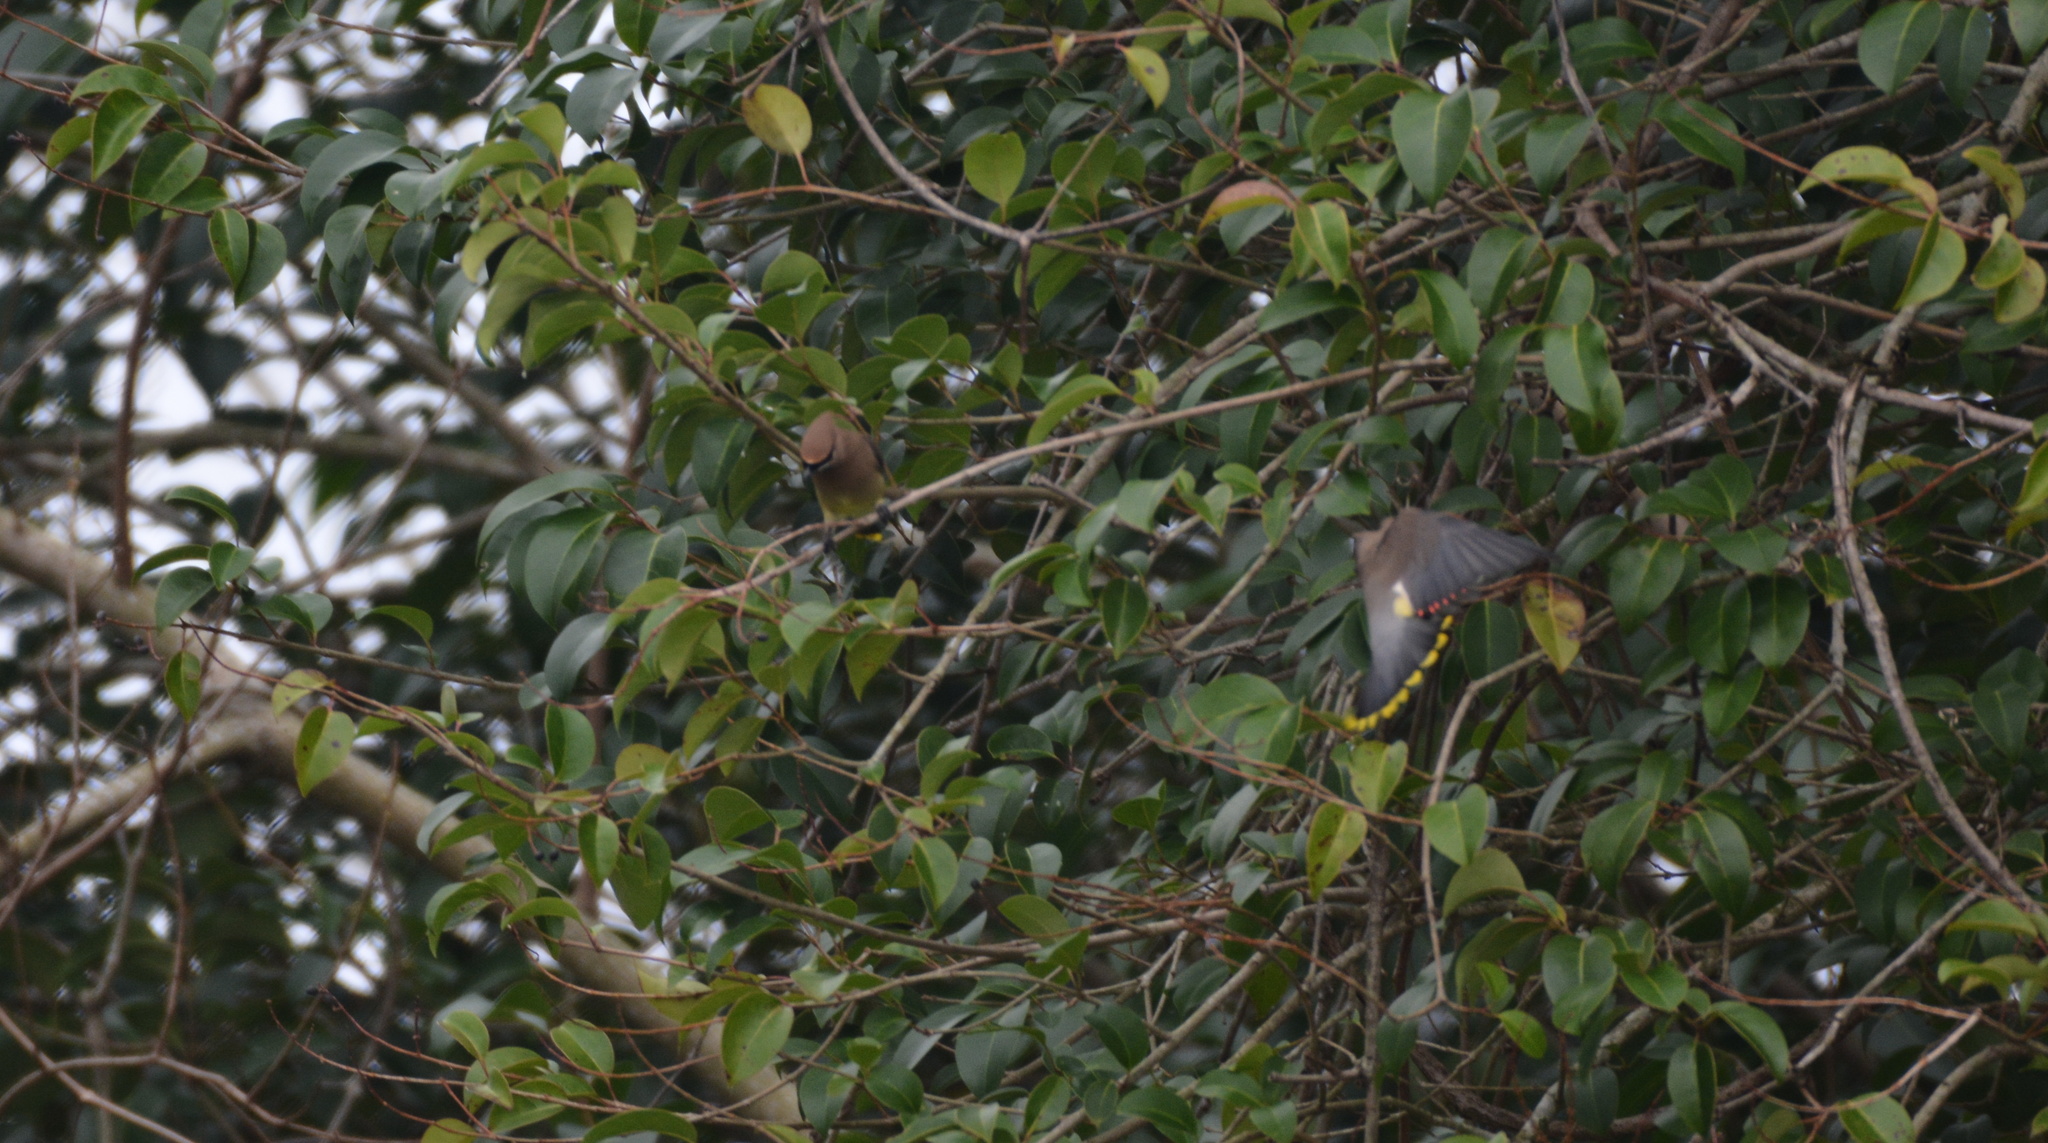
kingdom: Animalia
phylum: Chordata
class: Aves
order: Passeriformes
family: Bombycillidae
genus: Bombycilla
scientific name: Bombycilla cedrorum
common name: Cedar waxwing
